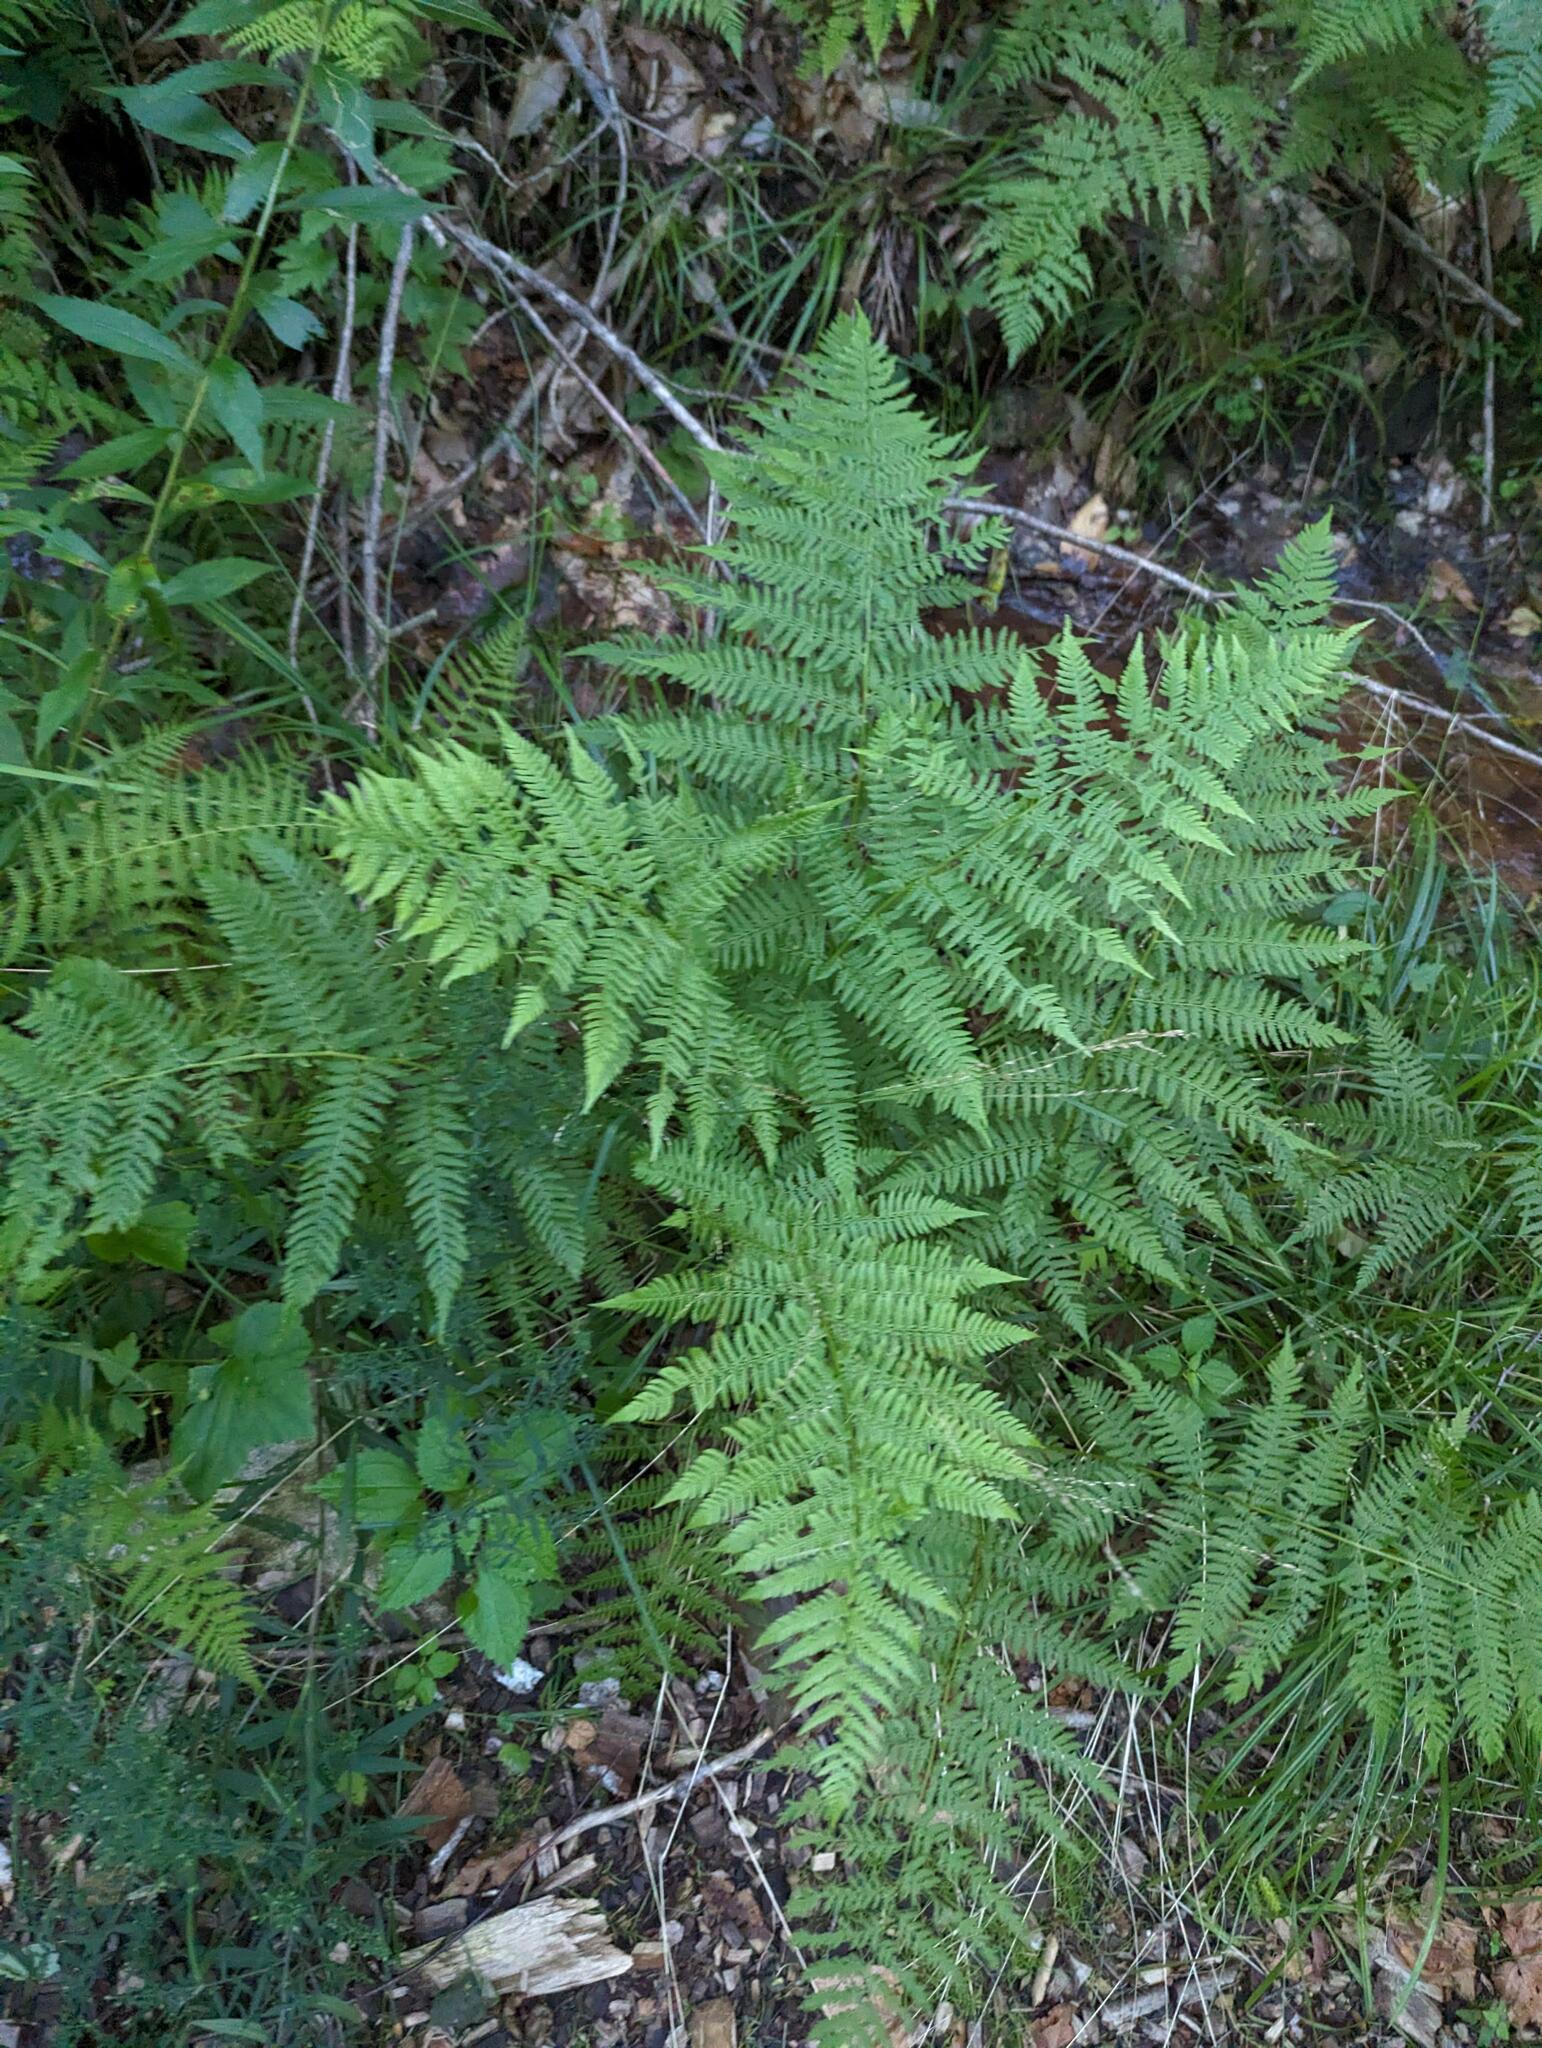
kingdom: Plantae
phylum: Tracheophyta
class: Polypodiopsida
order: Polypodiales
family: Athyriaceae
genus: Athyrium
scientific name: Athyrium angustum
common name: Northern lady fern
